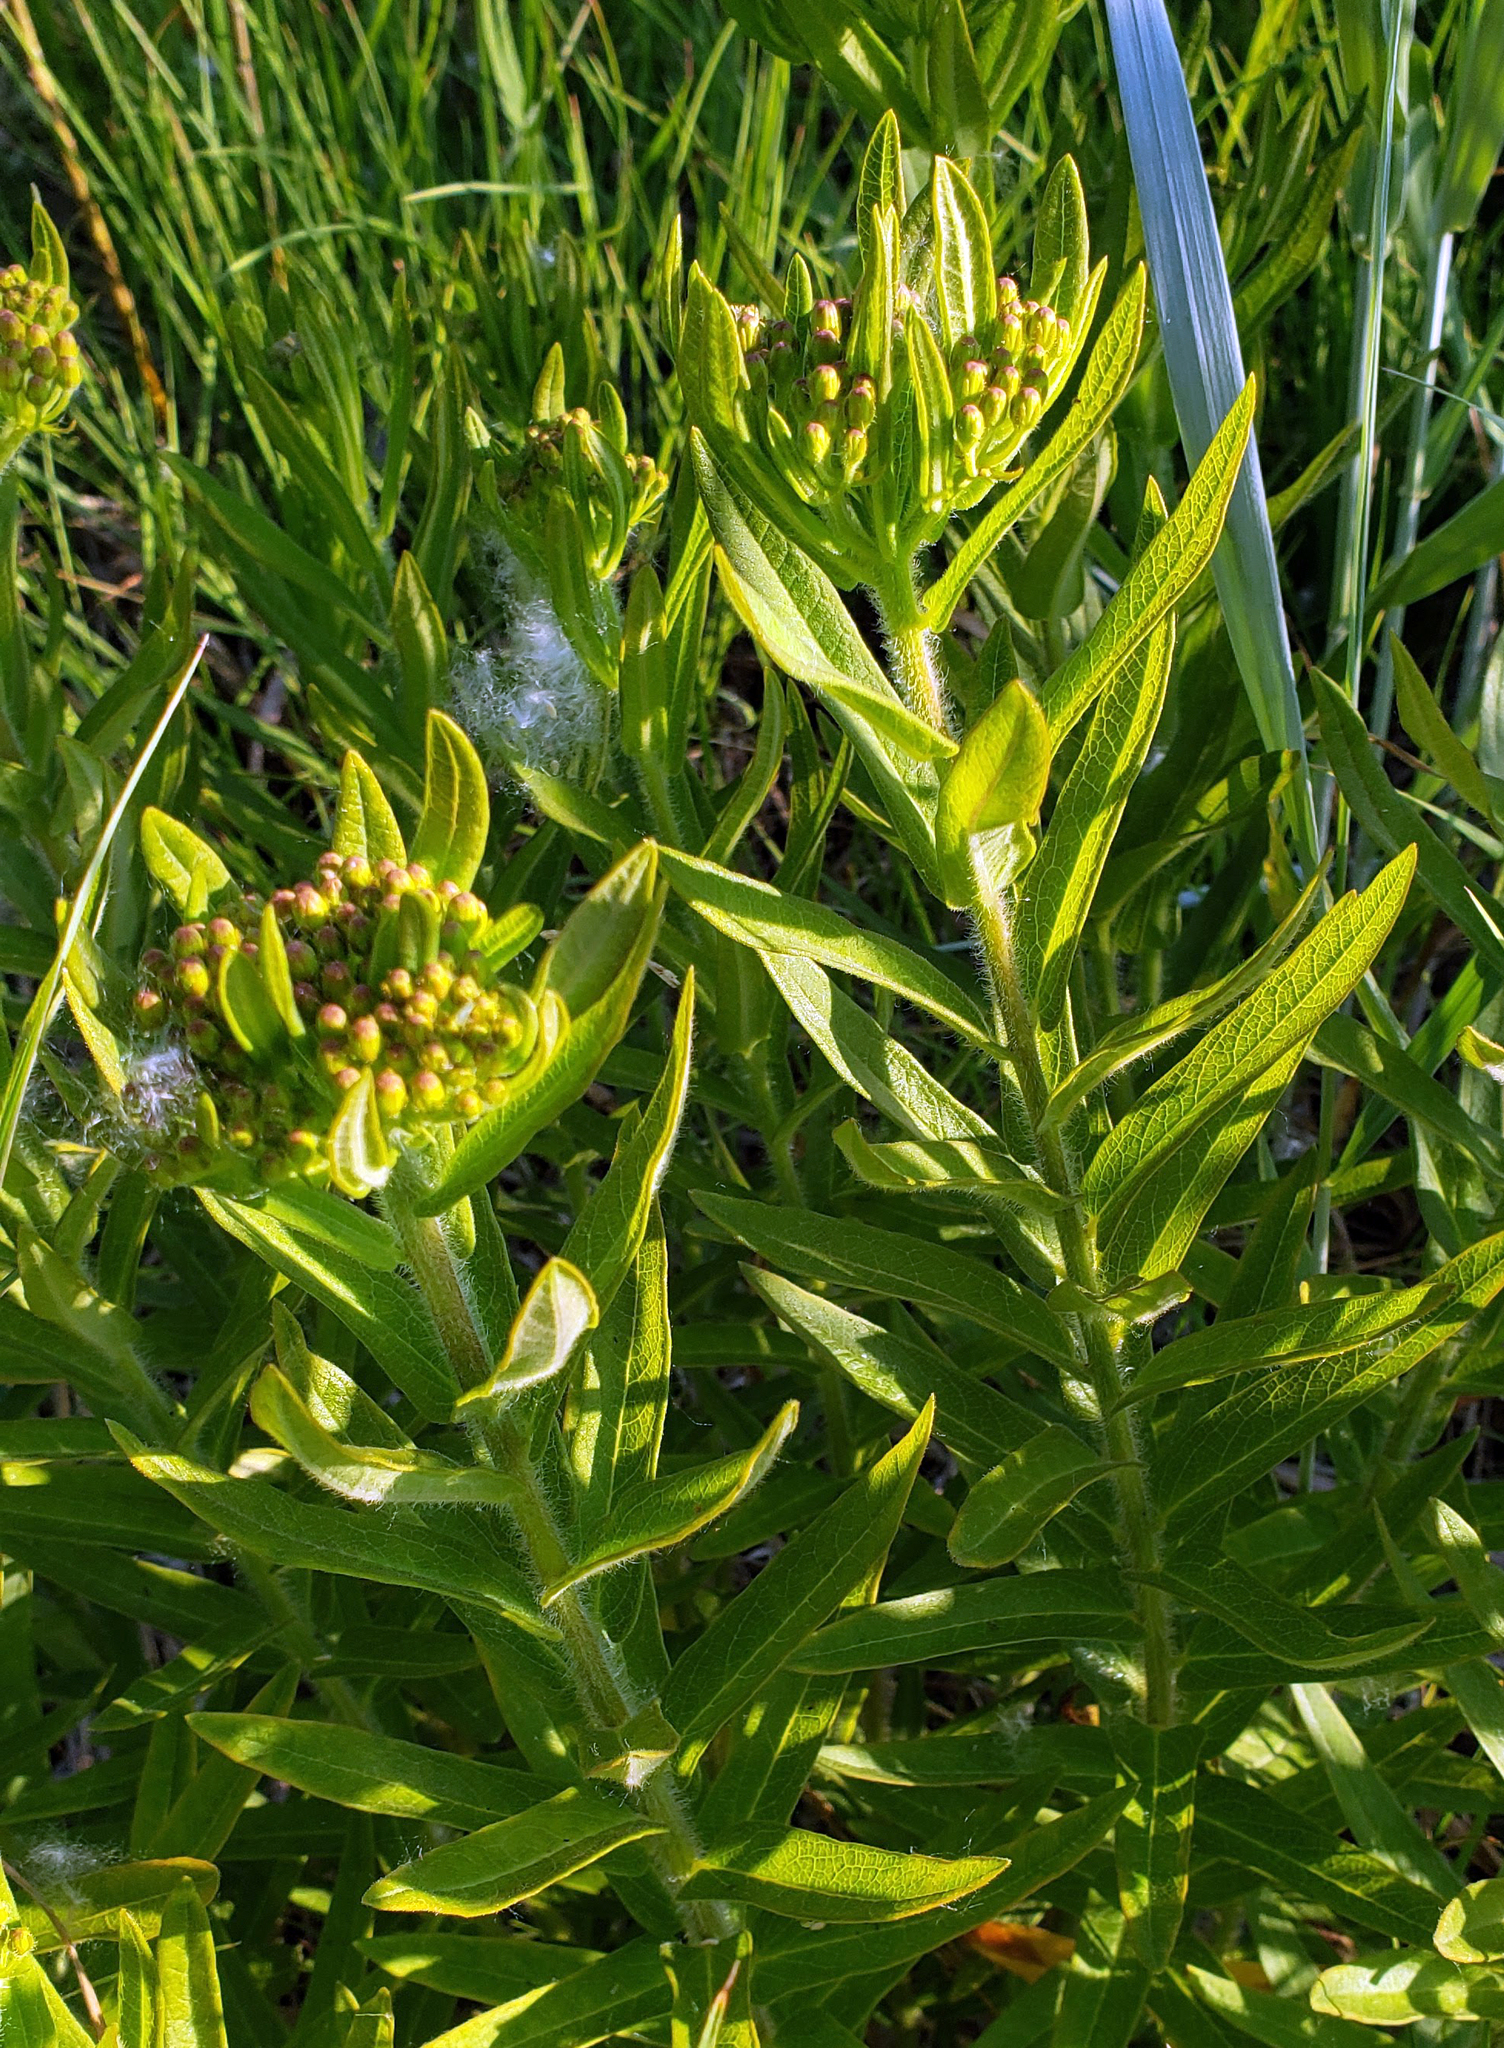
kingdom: Plantae
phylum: Tracheophyta
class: Magnoliopsida
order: Gentianales
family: Apocynaceae
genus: Asclepias
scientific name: Asclepias tuberosa
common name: Butterfly milkweed
